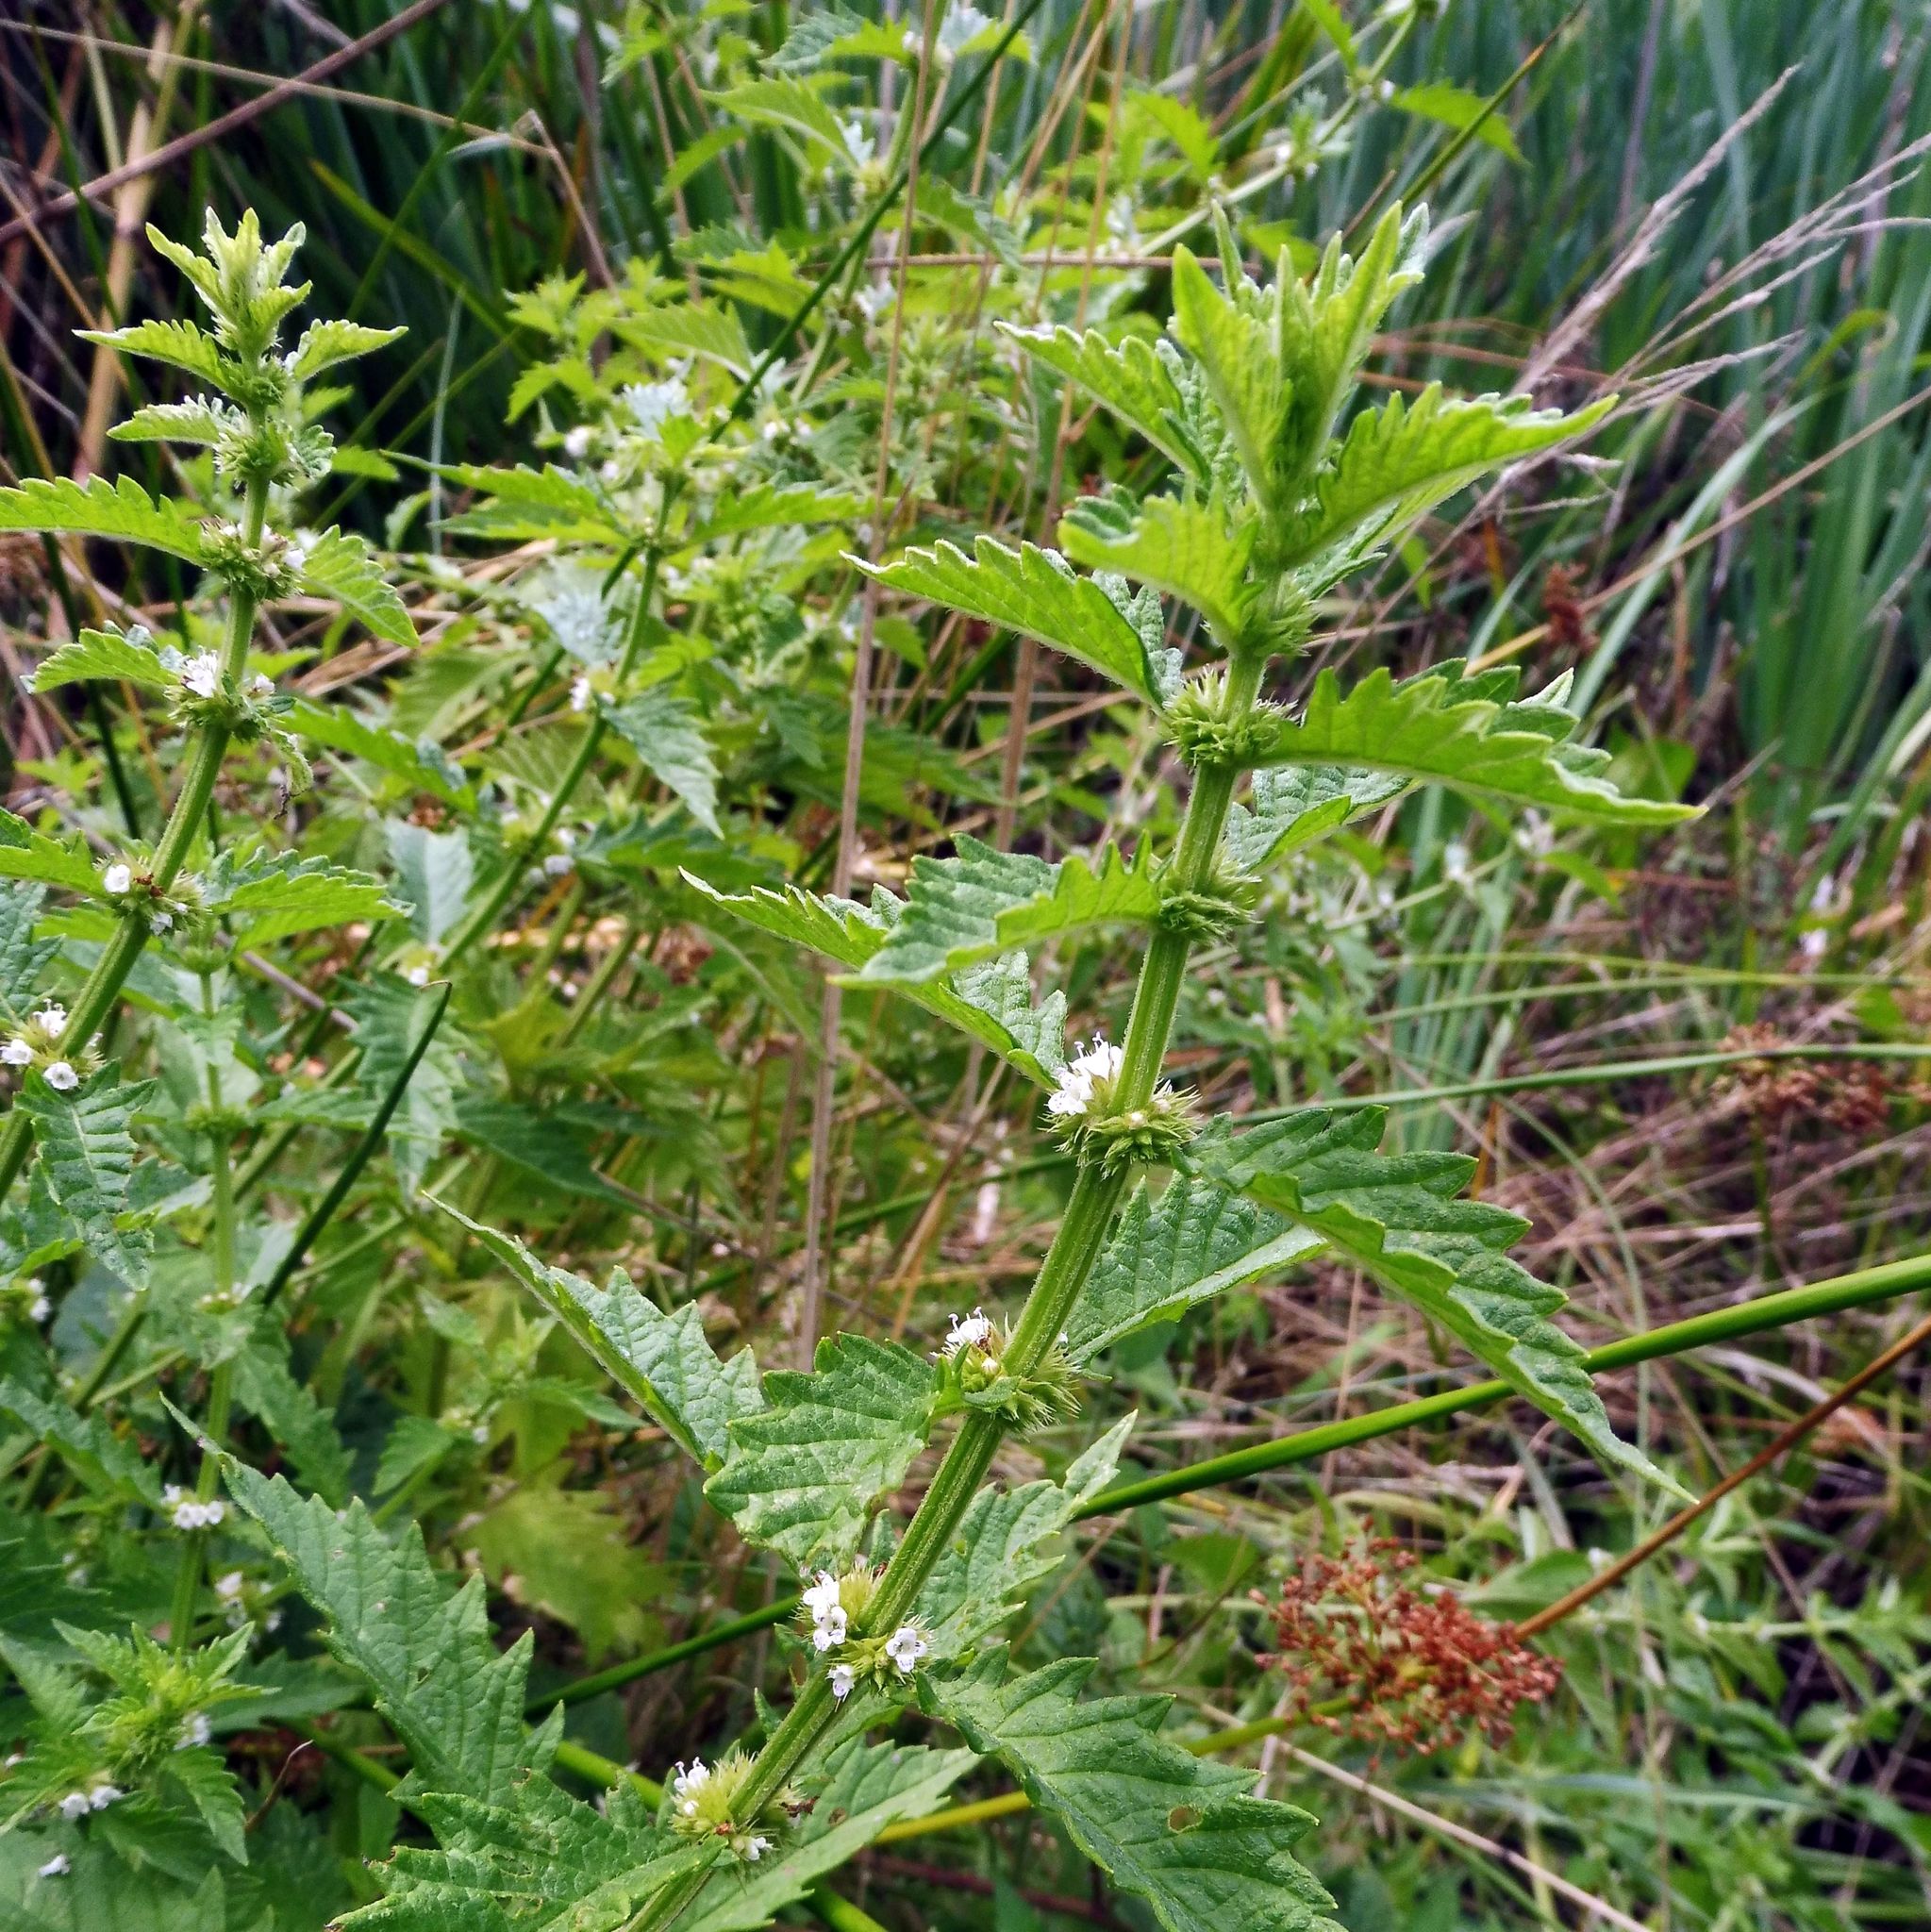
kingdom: Plantae
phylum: Tracheophyta
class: Magnoliopsida
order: Lamiales
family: Lamiaceae
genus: Lycopus
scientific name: Lycopus europaeus
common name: European bugleweed
